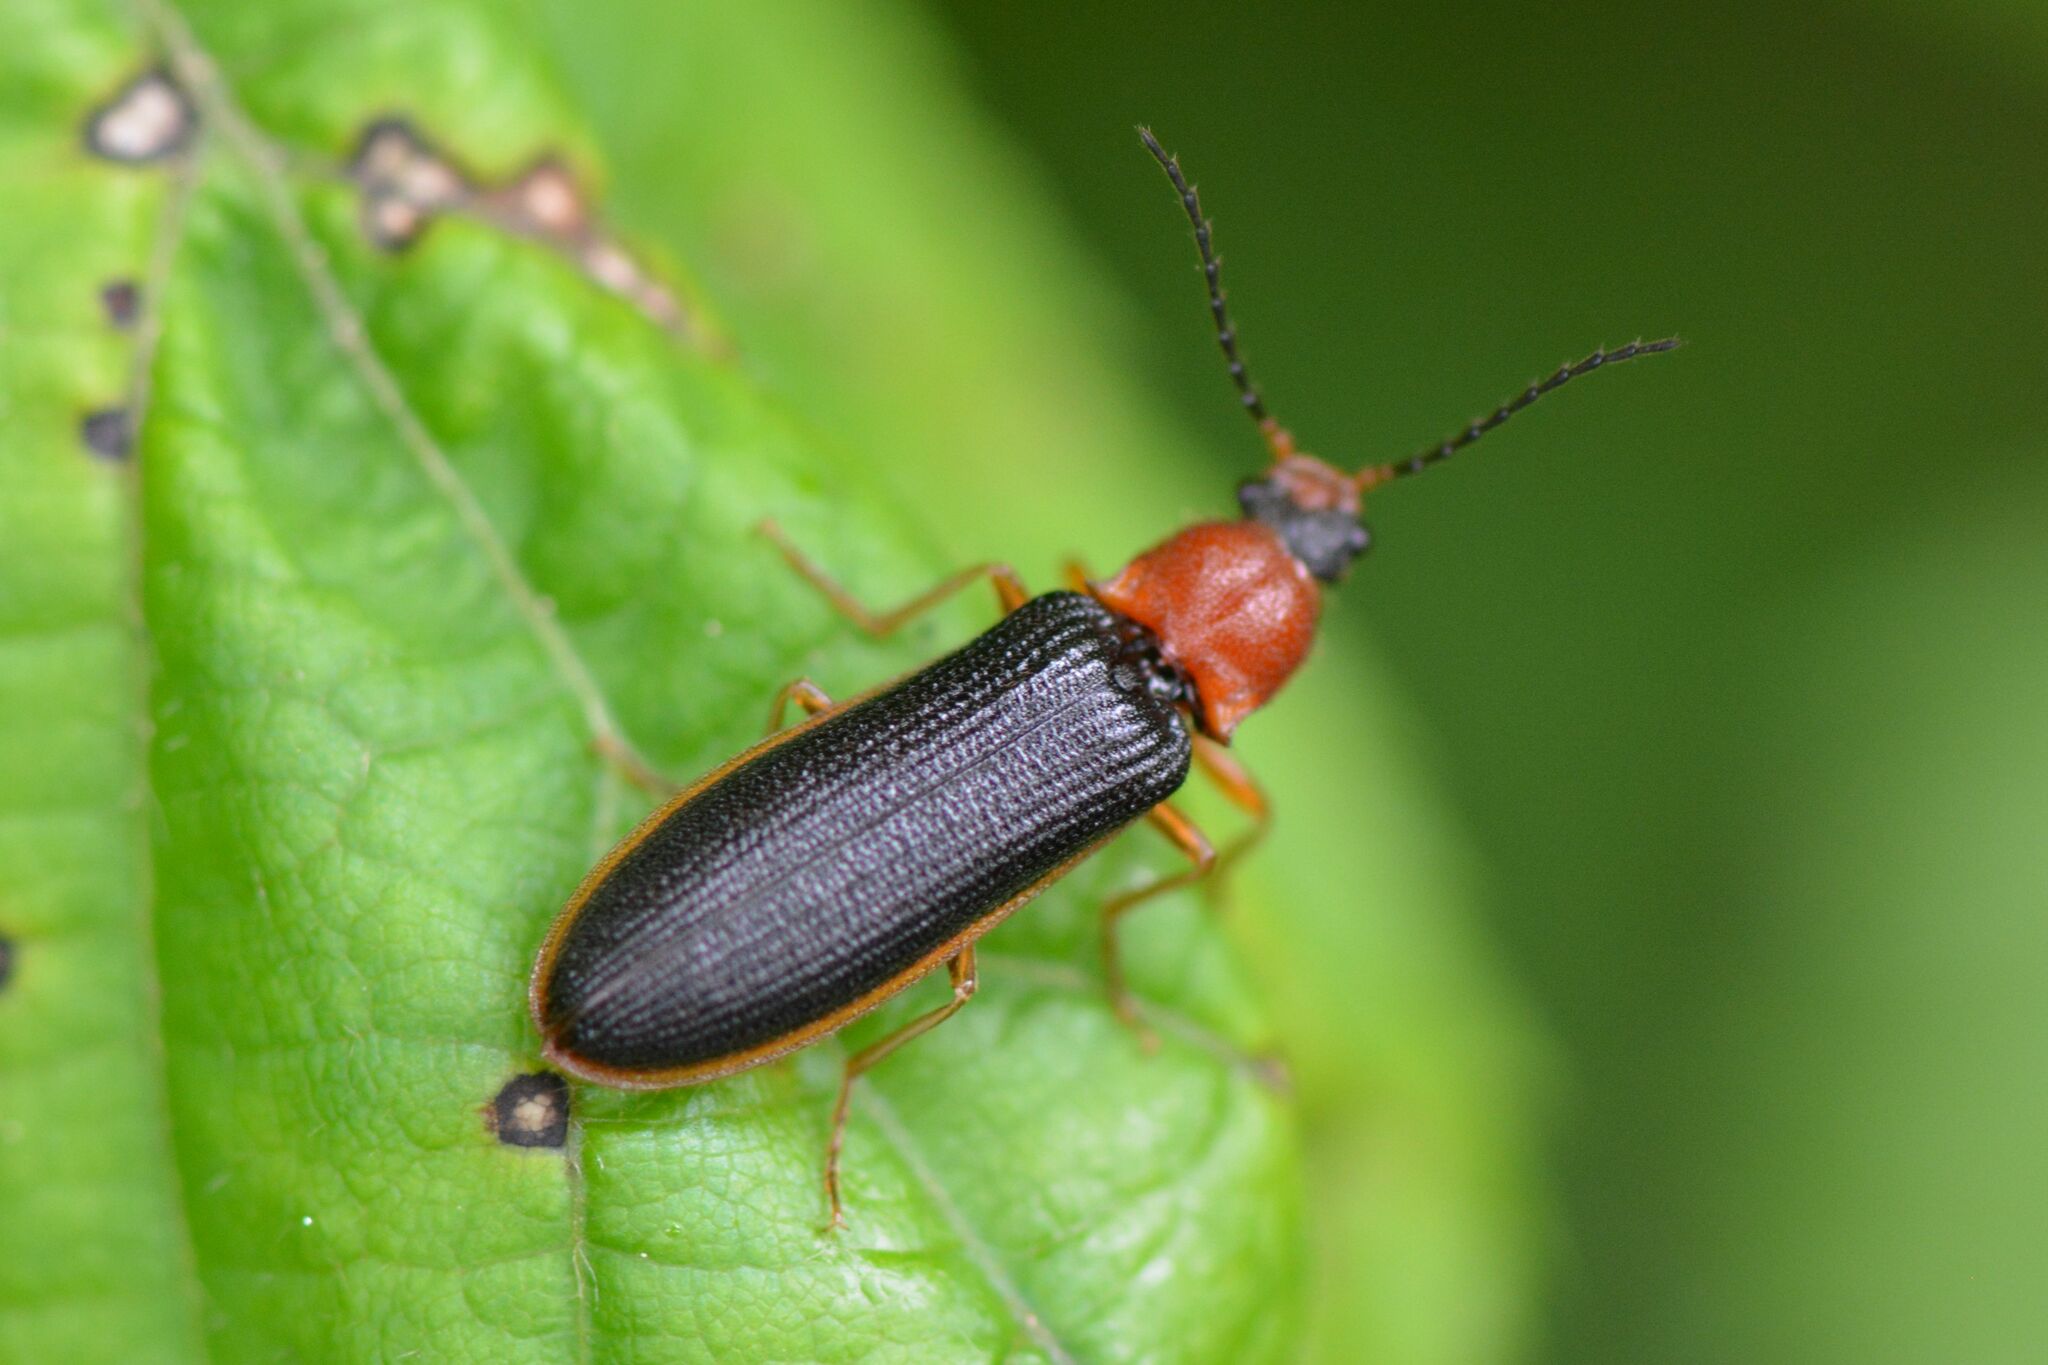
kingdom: Animalia
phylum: Arthropoda
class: Insecta
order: Coleoptera
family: Elateridae
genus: Denticollis
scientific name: Denticollis linearis
